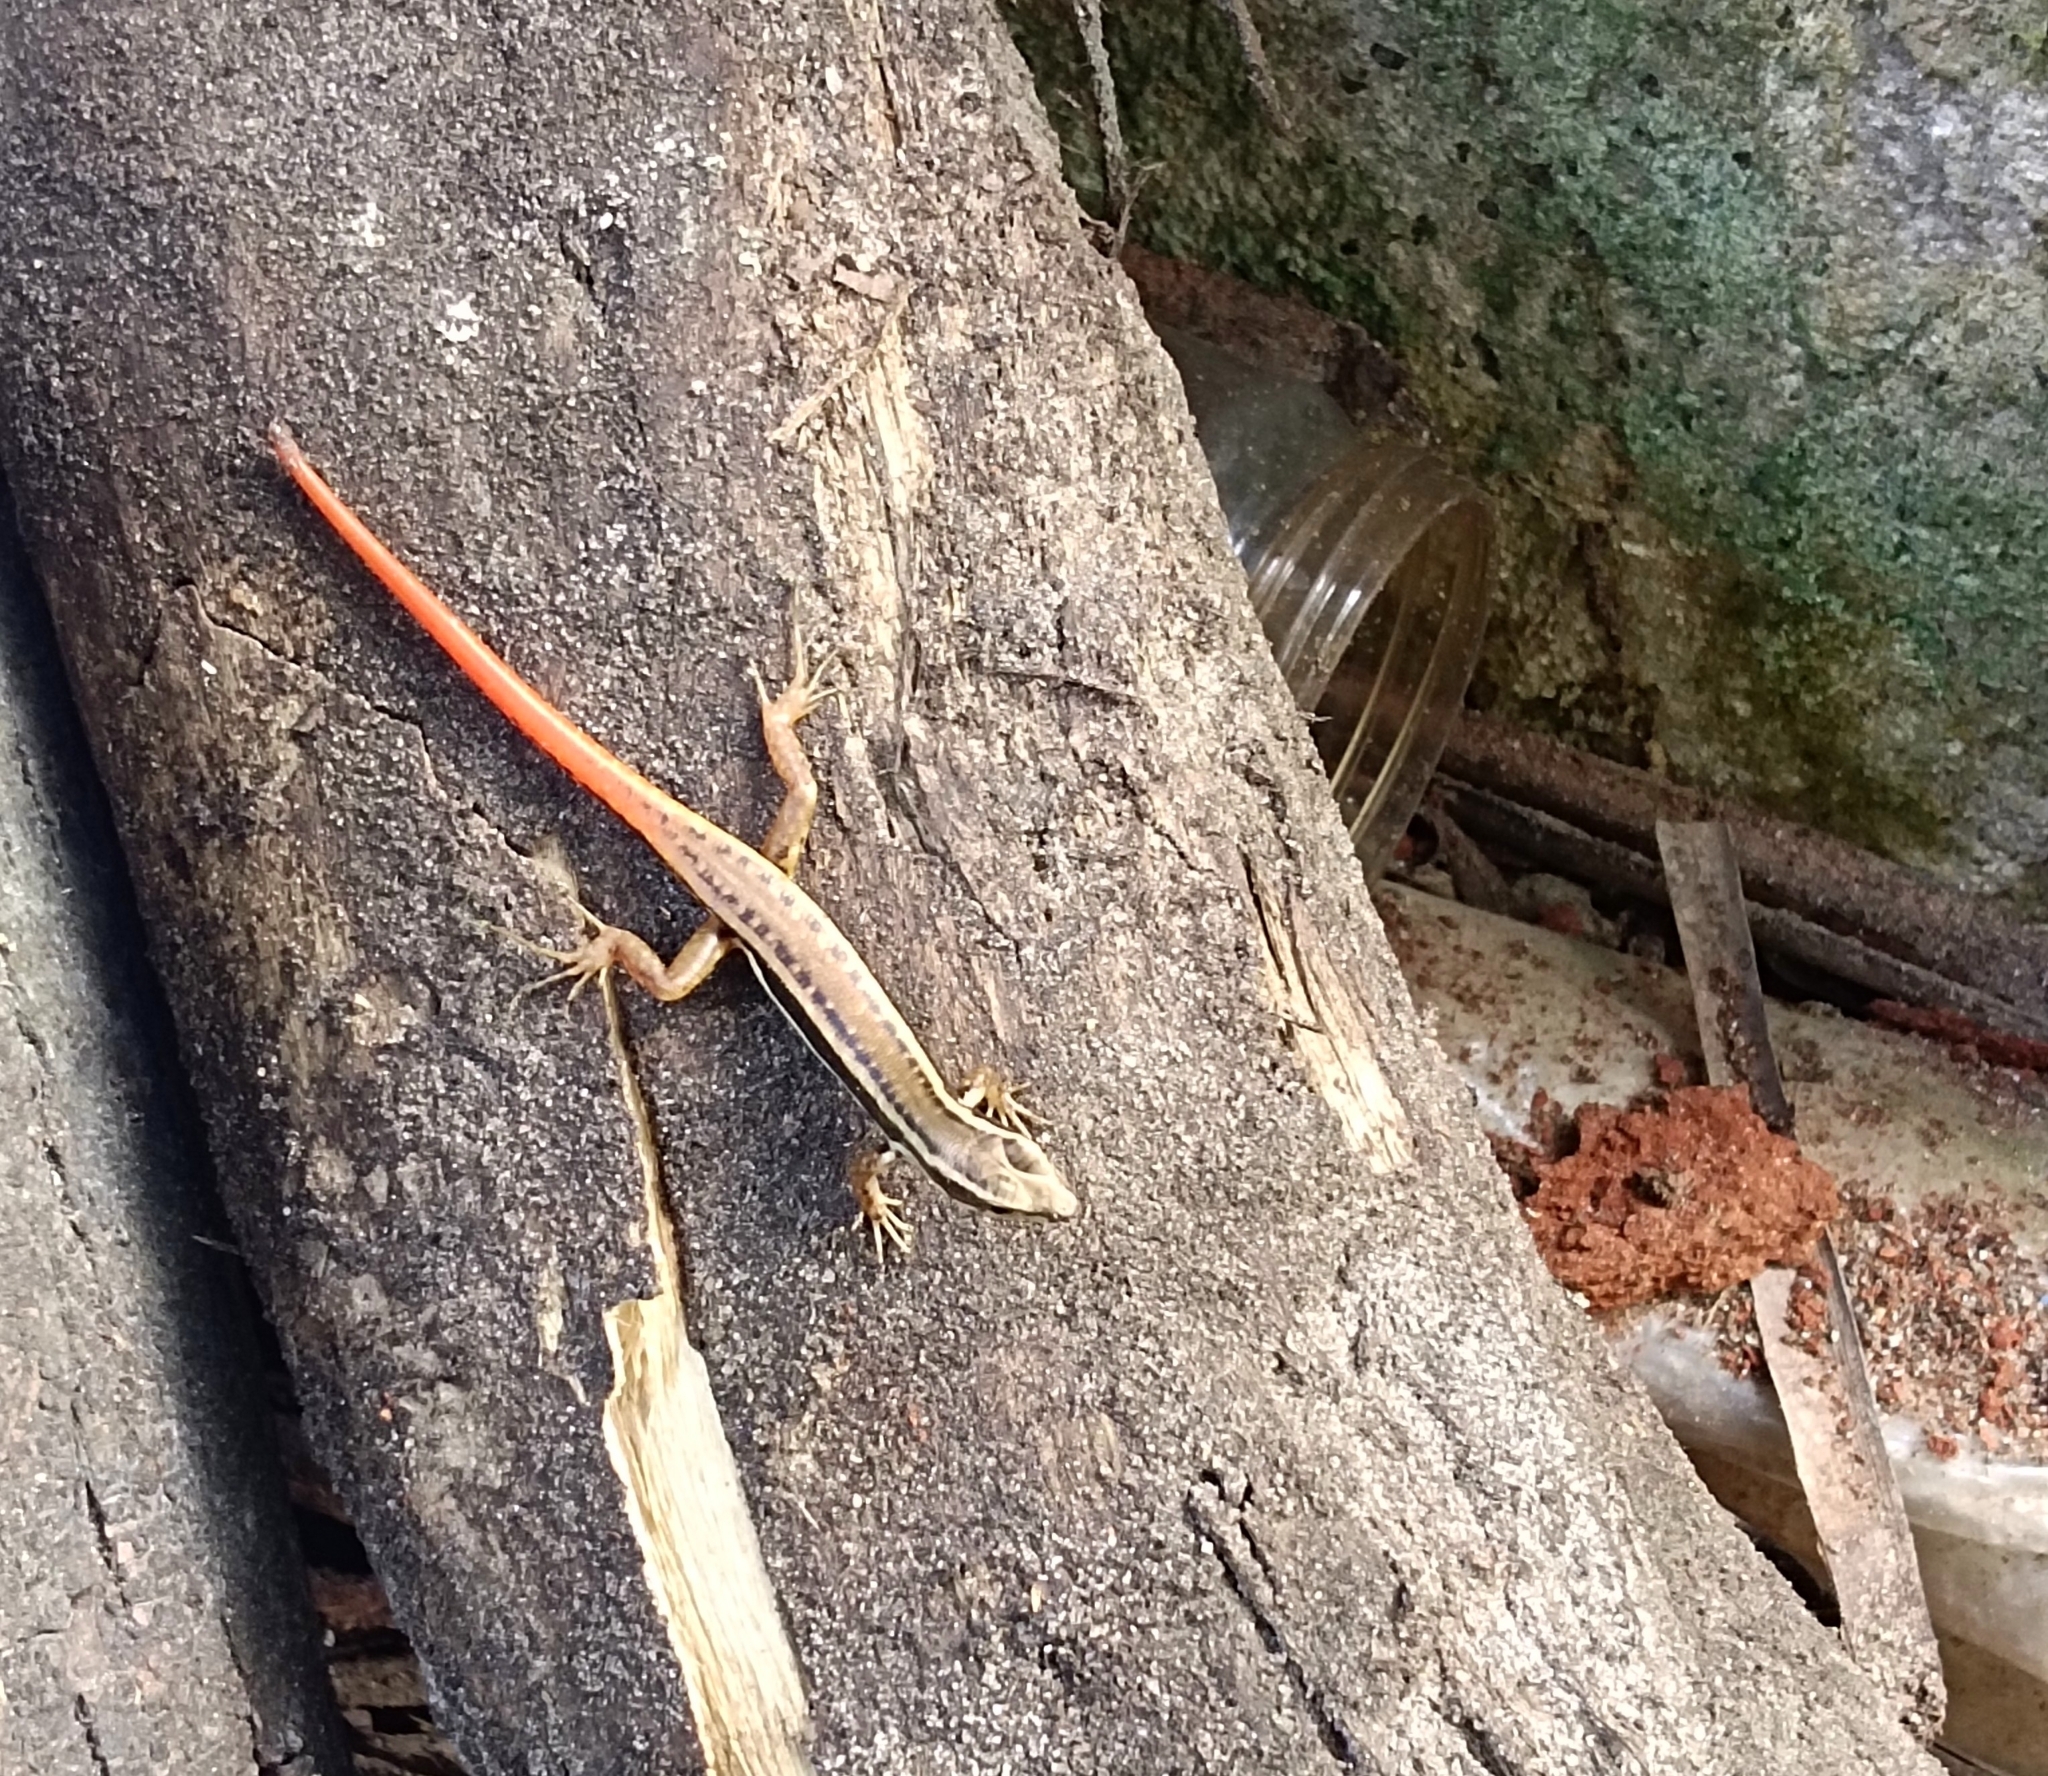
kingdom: Animalia
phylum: Chordata
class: Squamata
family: Scincidae
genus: Sphenomorphus
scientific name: Sphenomorphus dussumieri
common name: Dussumier's forest skink
